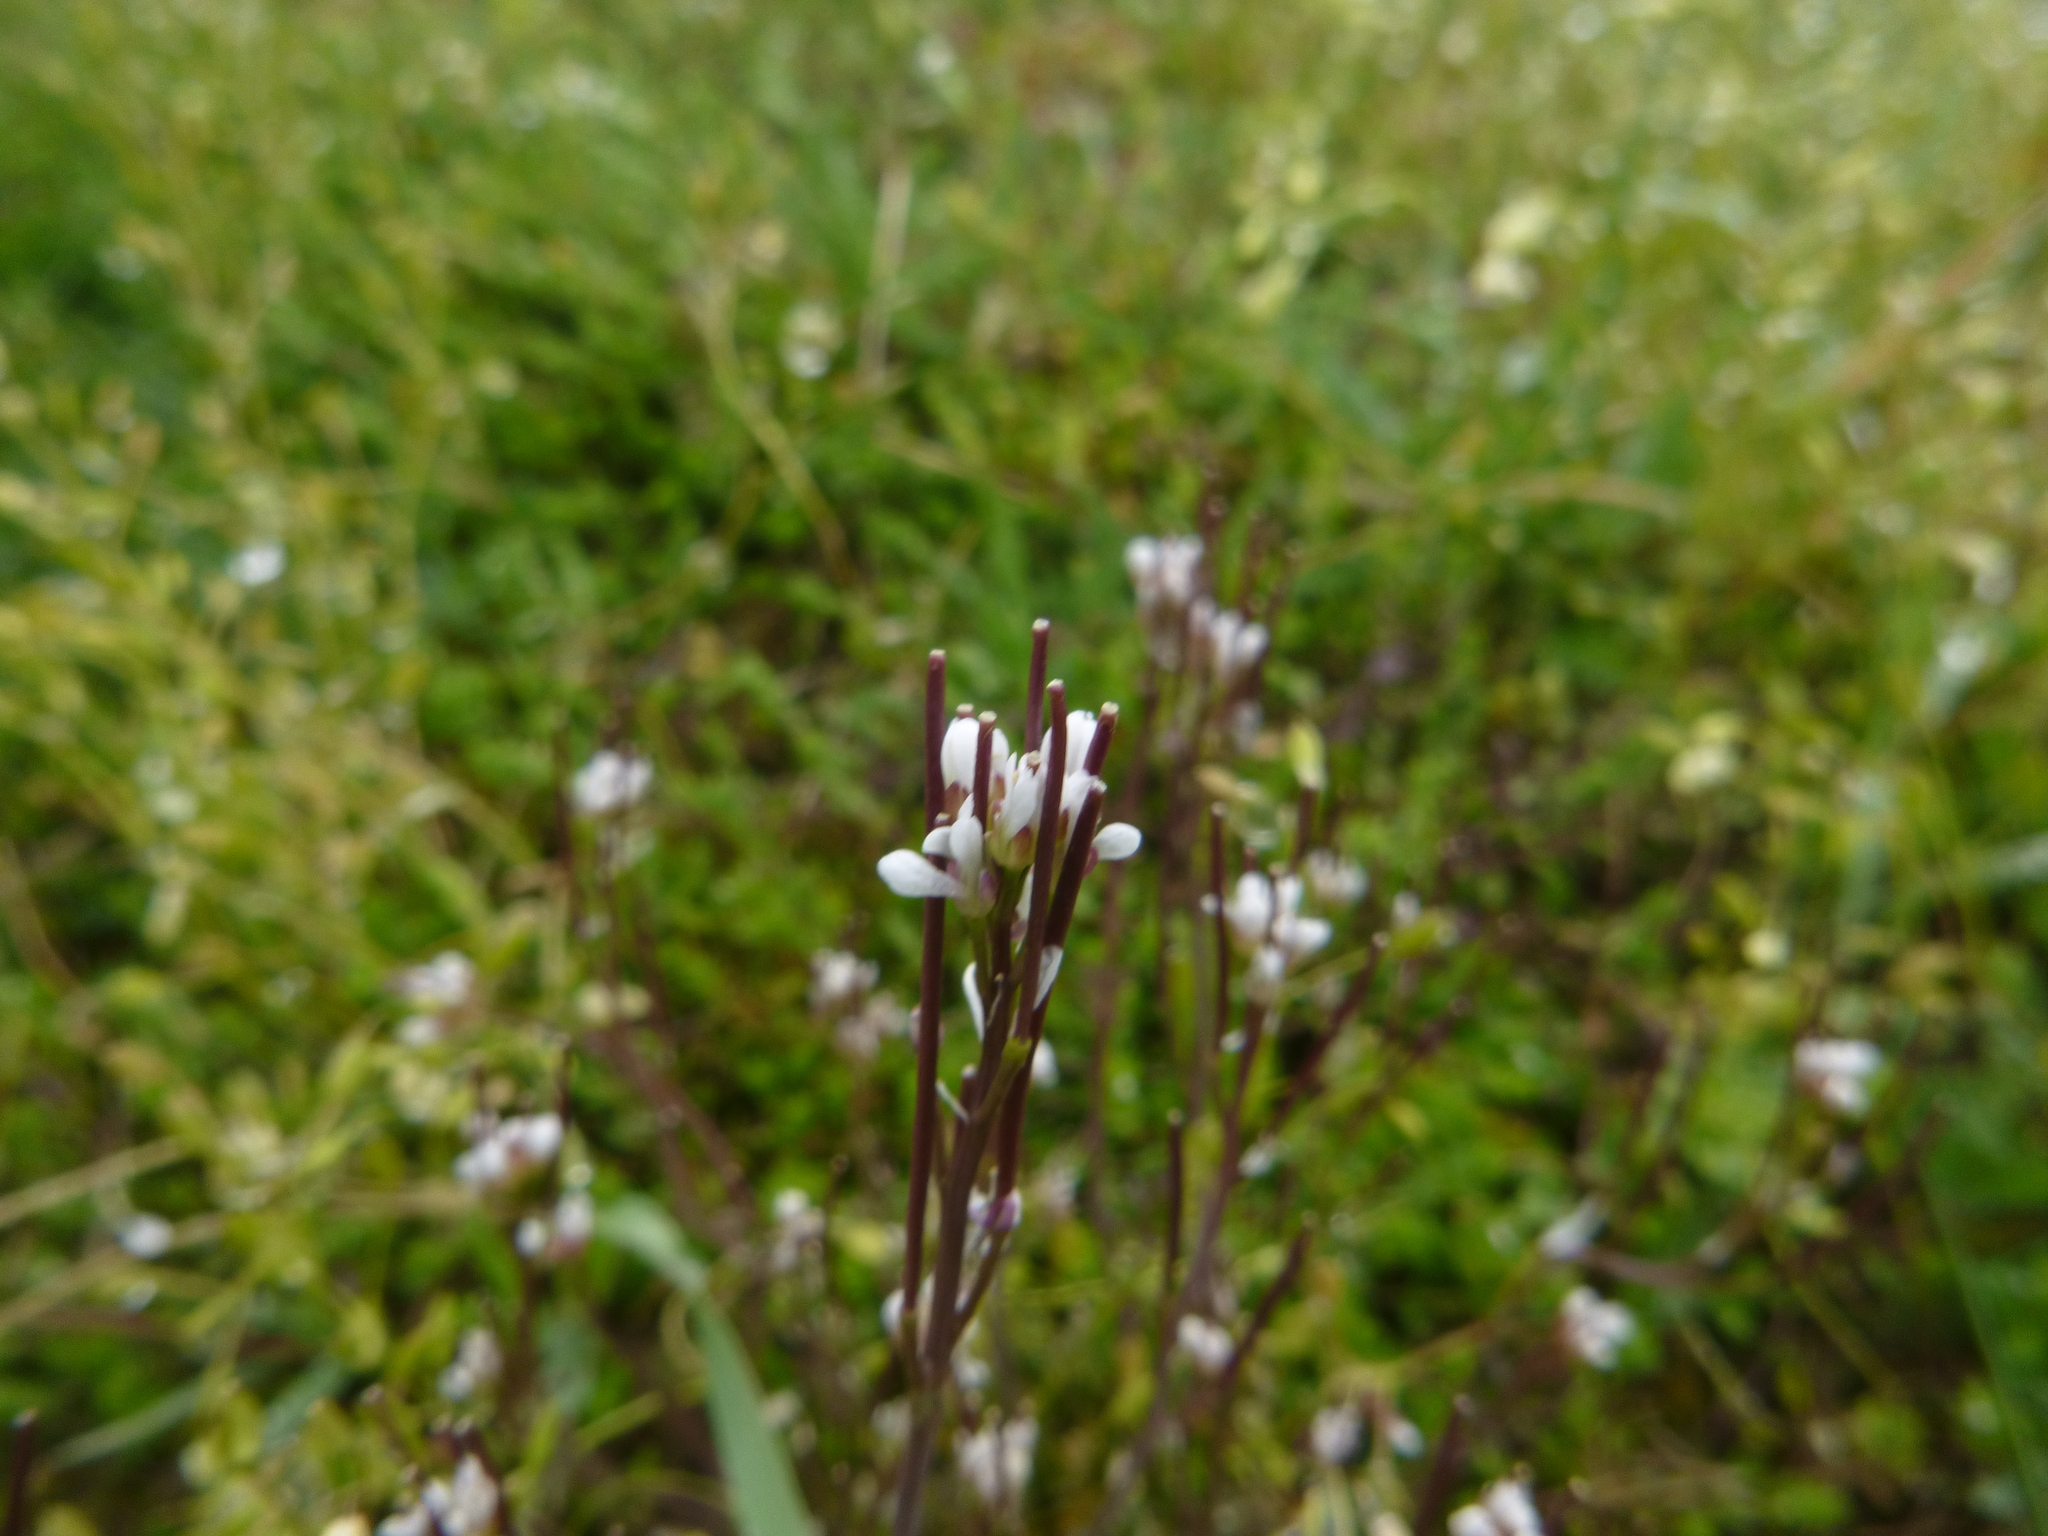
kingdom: Plantae
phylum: Tracheophyta
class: Magnoliopsida
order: Brassicales
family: Brassicaceae
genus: Cardamine
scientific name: Cardamine hirsuta
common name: Hairy bittercress
